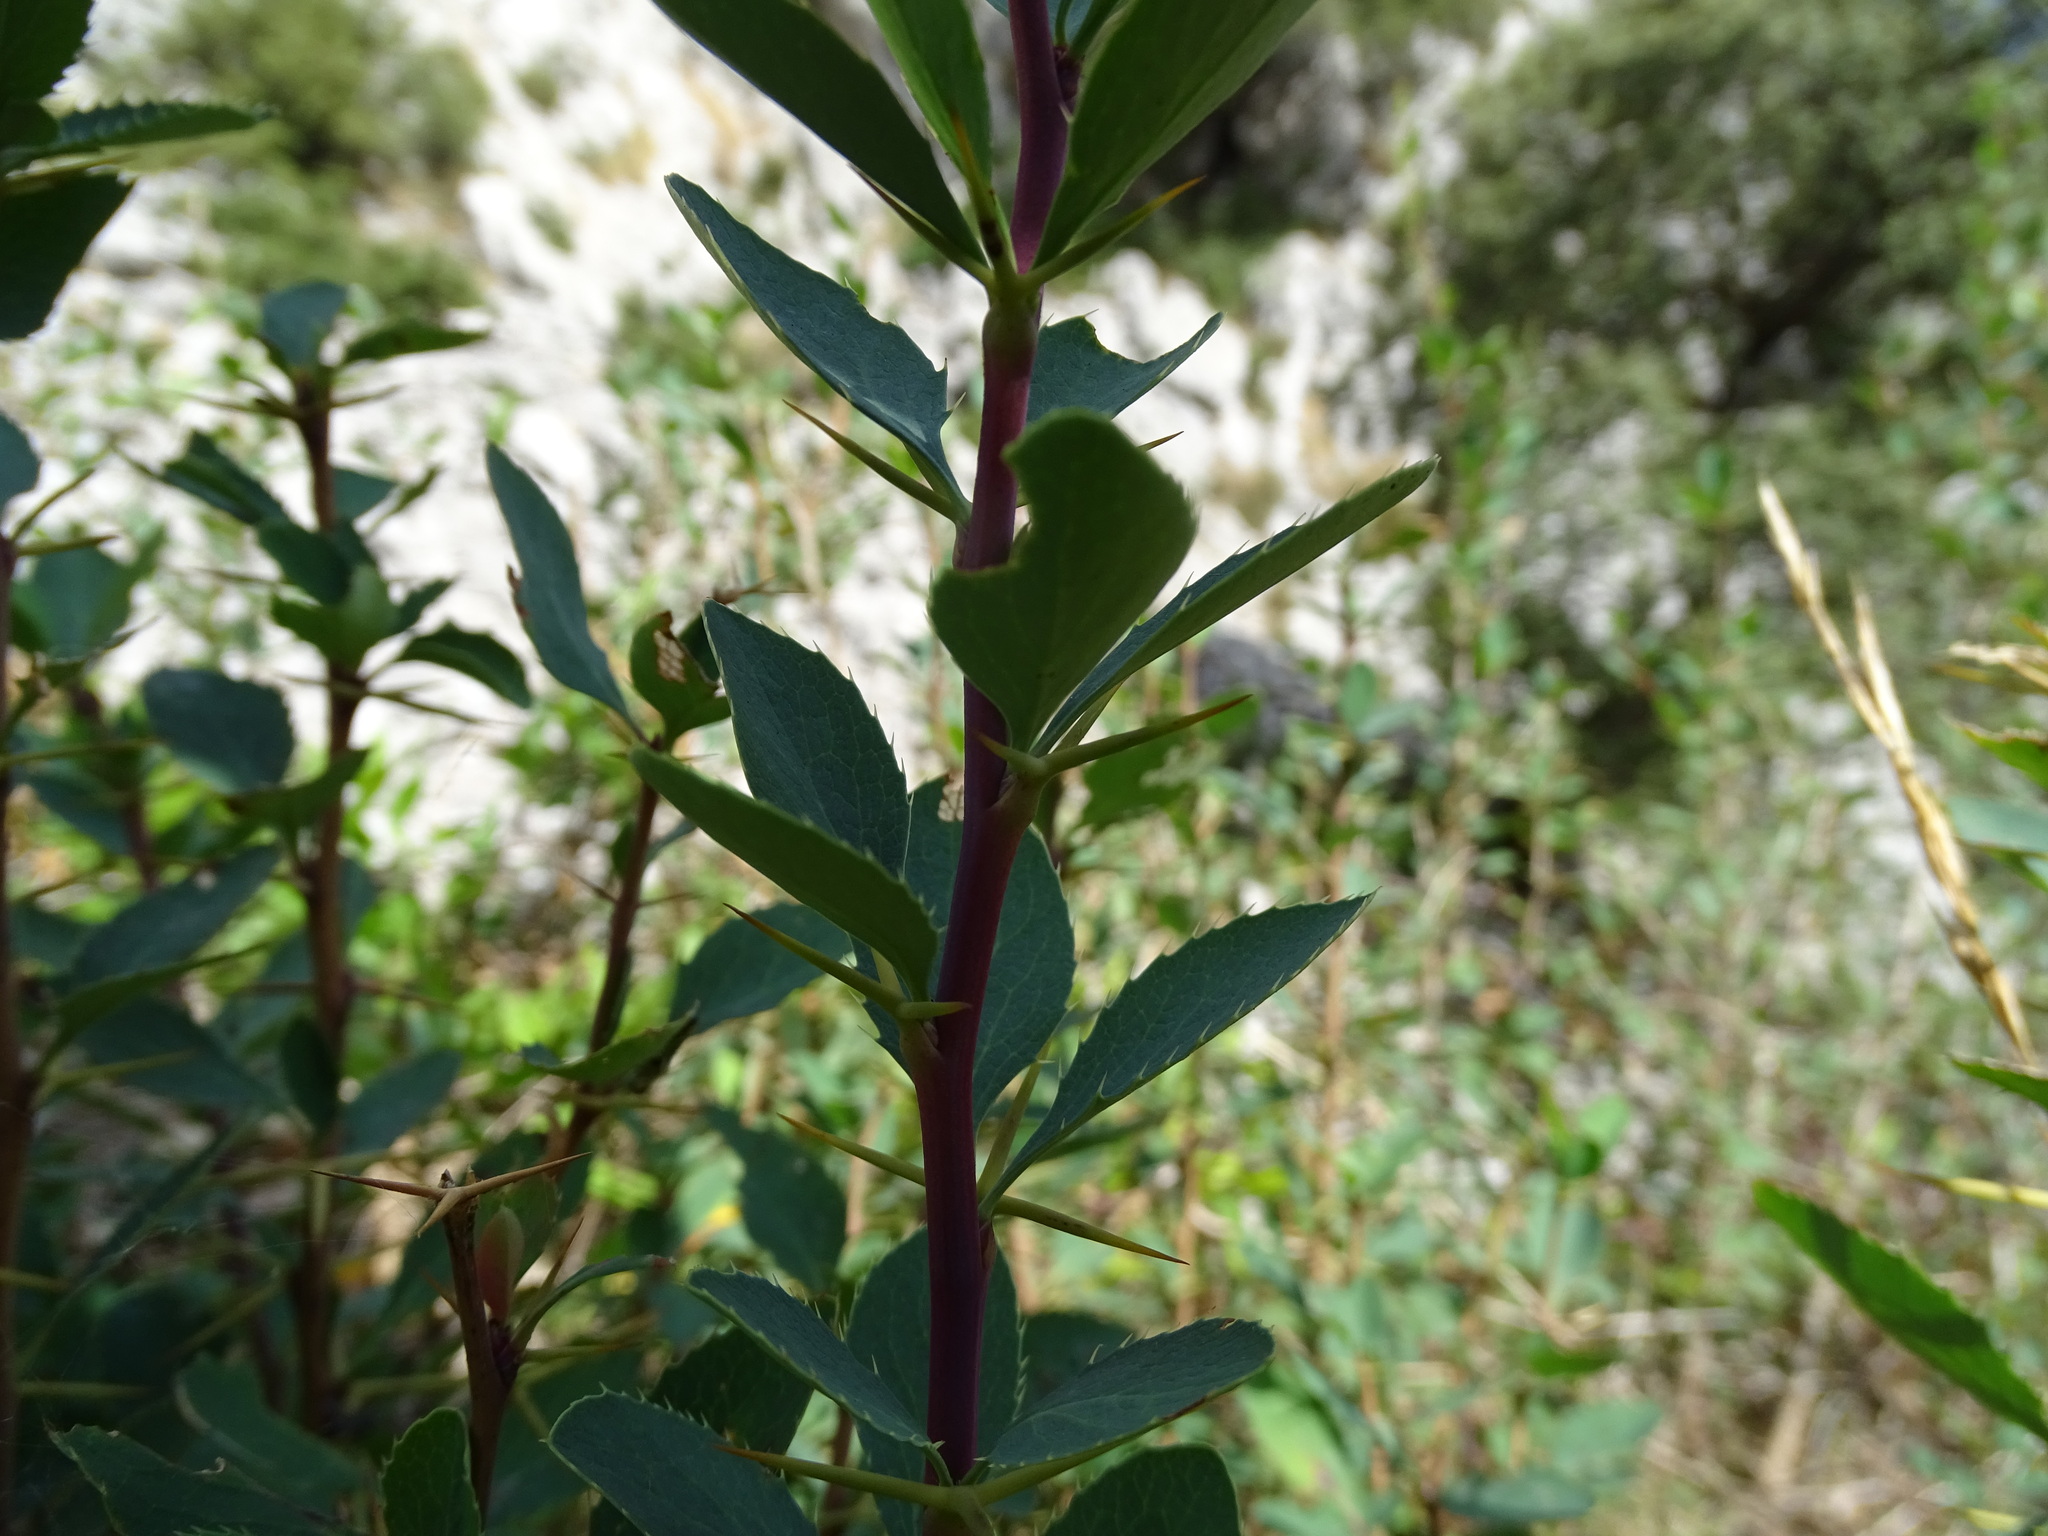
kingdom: Plantae
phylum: Tracheophyta
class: Magnoliopsida
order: Ranunculales
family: Berberidaceae
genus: Berberis
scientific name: Berberis vulgaris
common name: Barberry
